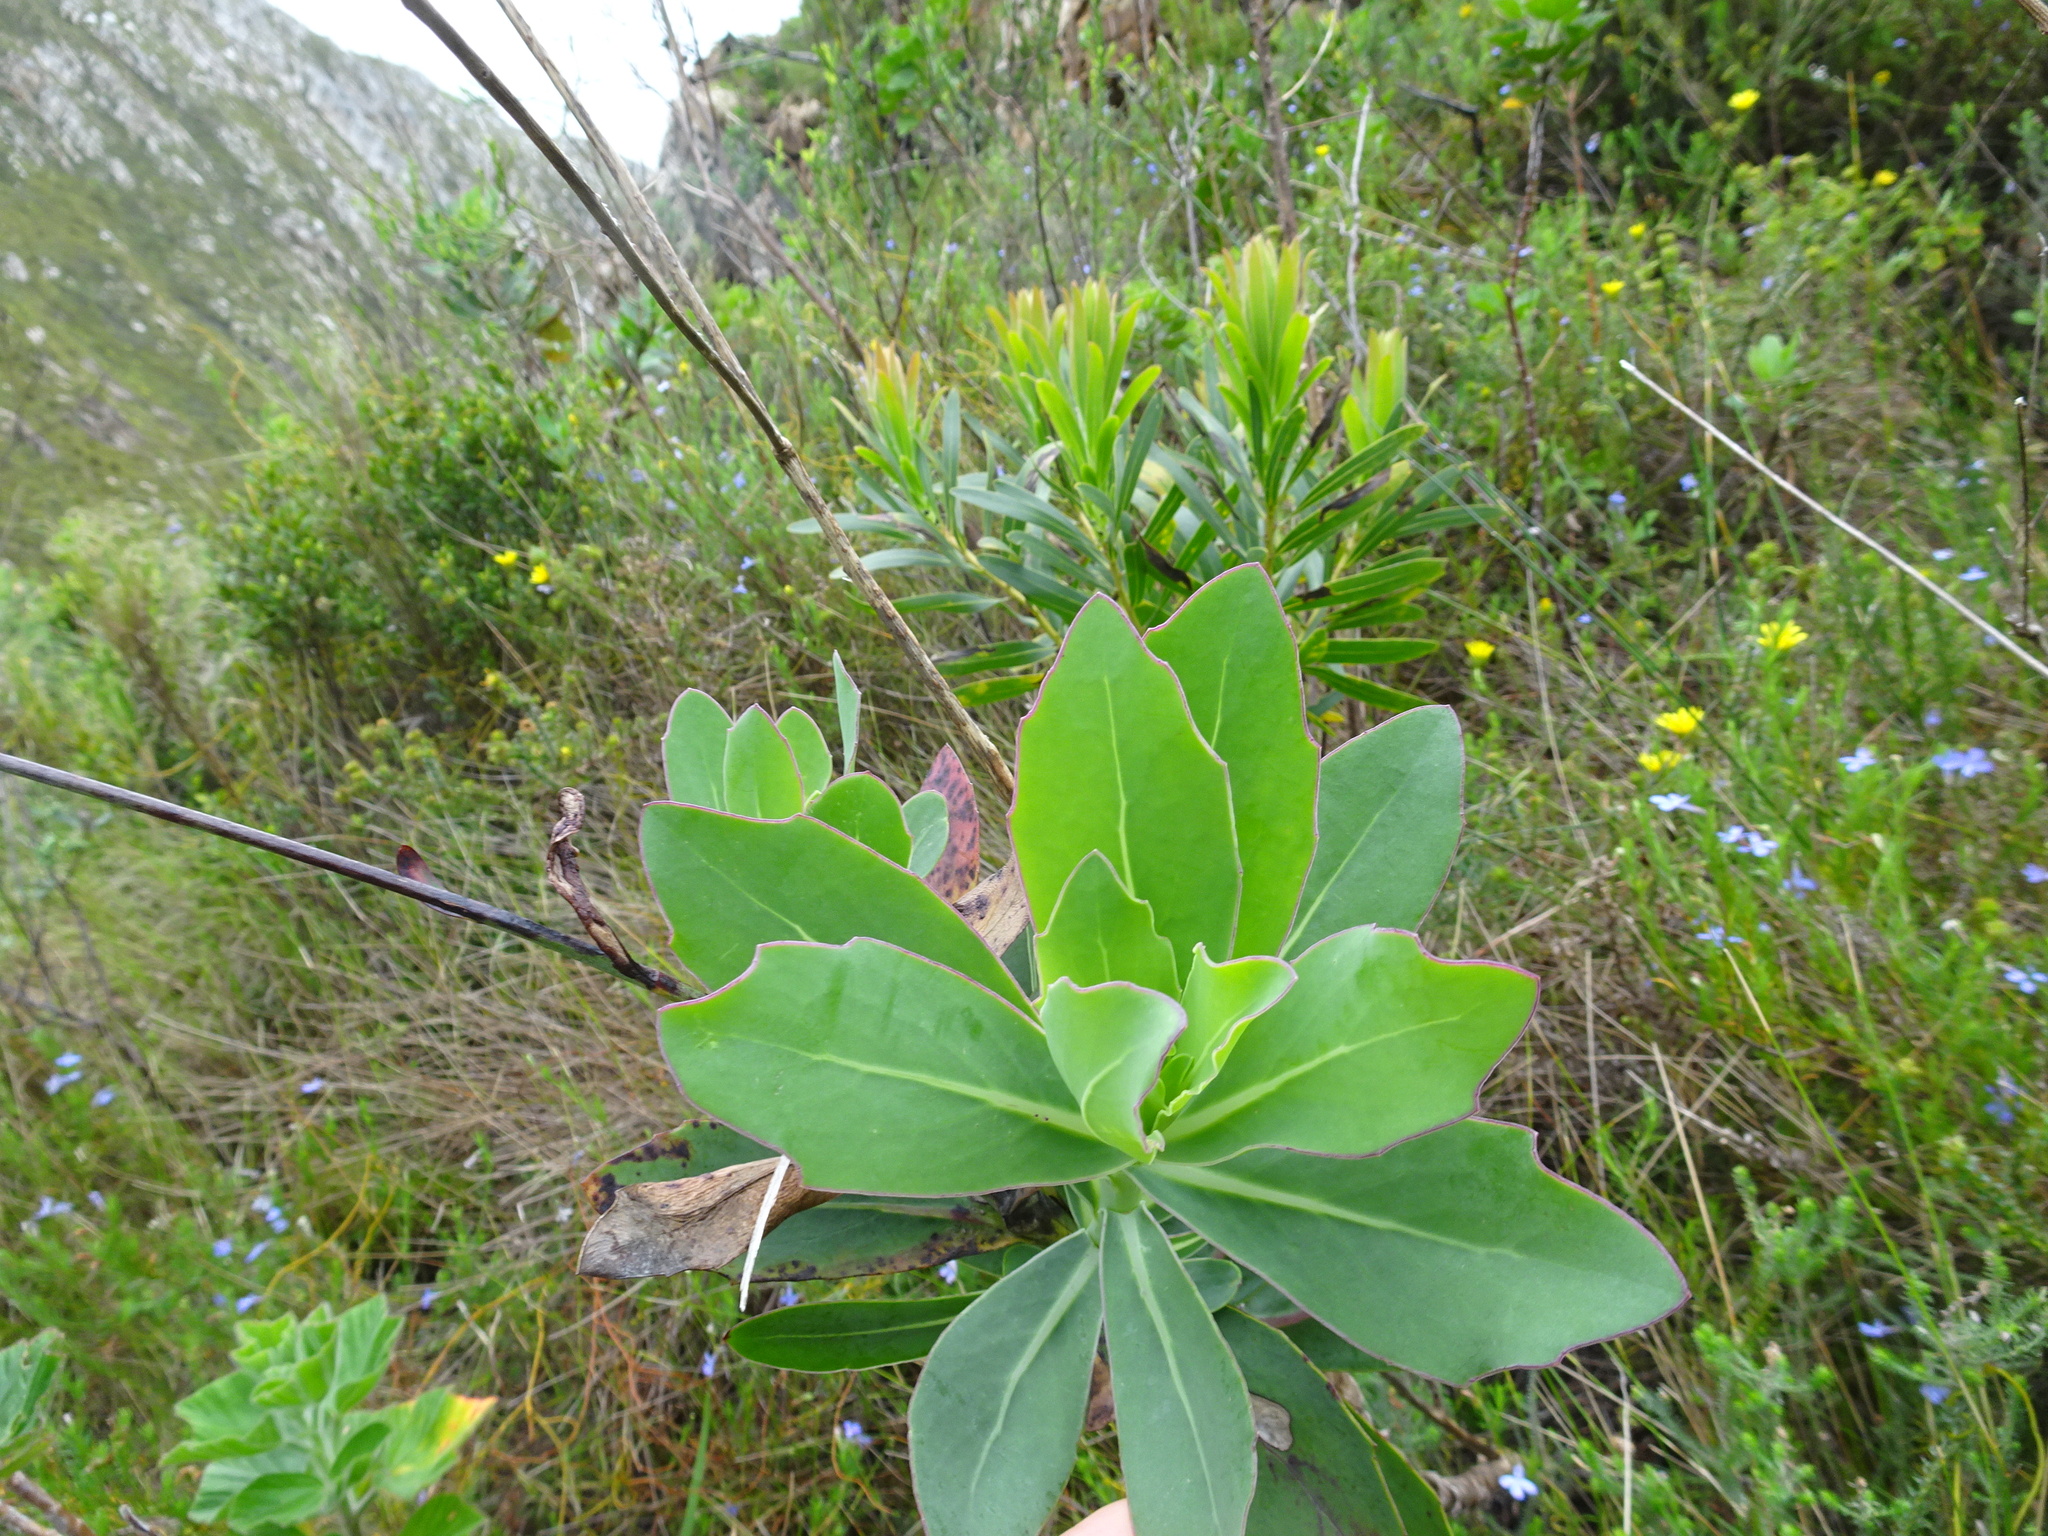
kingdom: Plantae
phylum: Tracheophyta
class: Magnoliopsida
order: Asterales
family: Asteraceae
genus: Othonna
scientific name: Othonna quinquedentata
